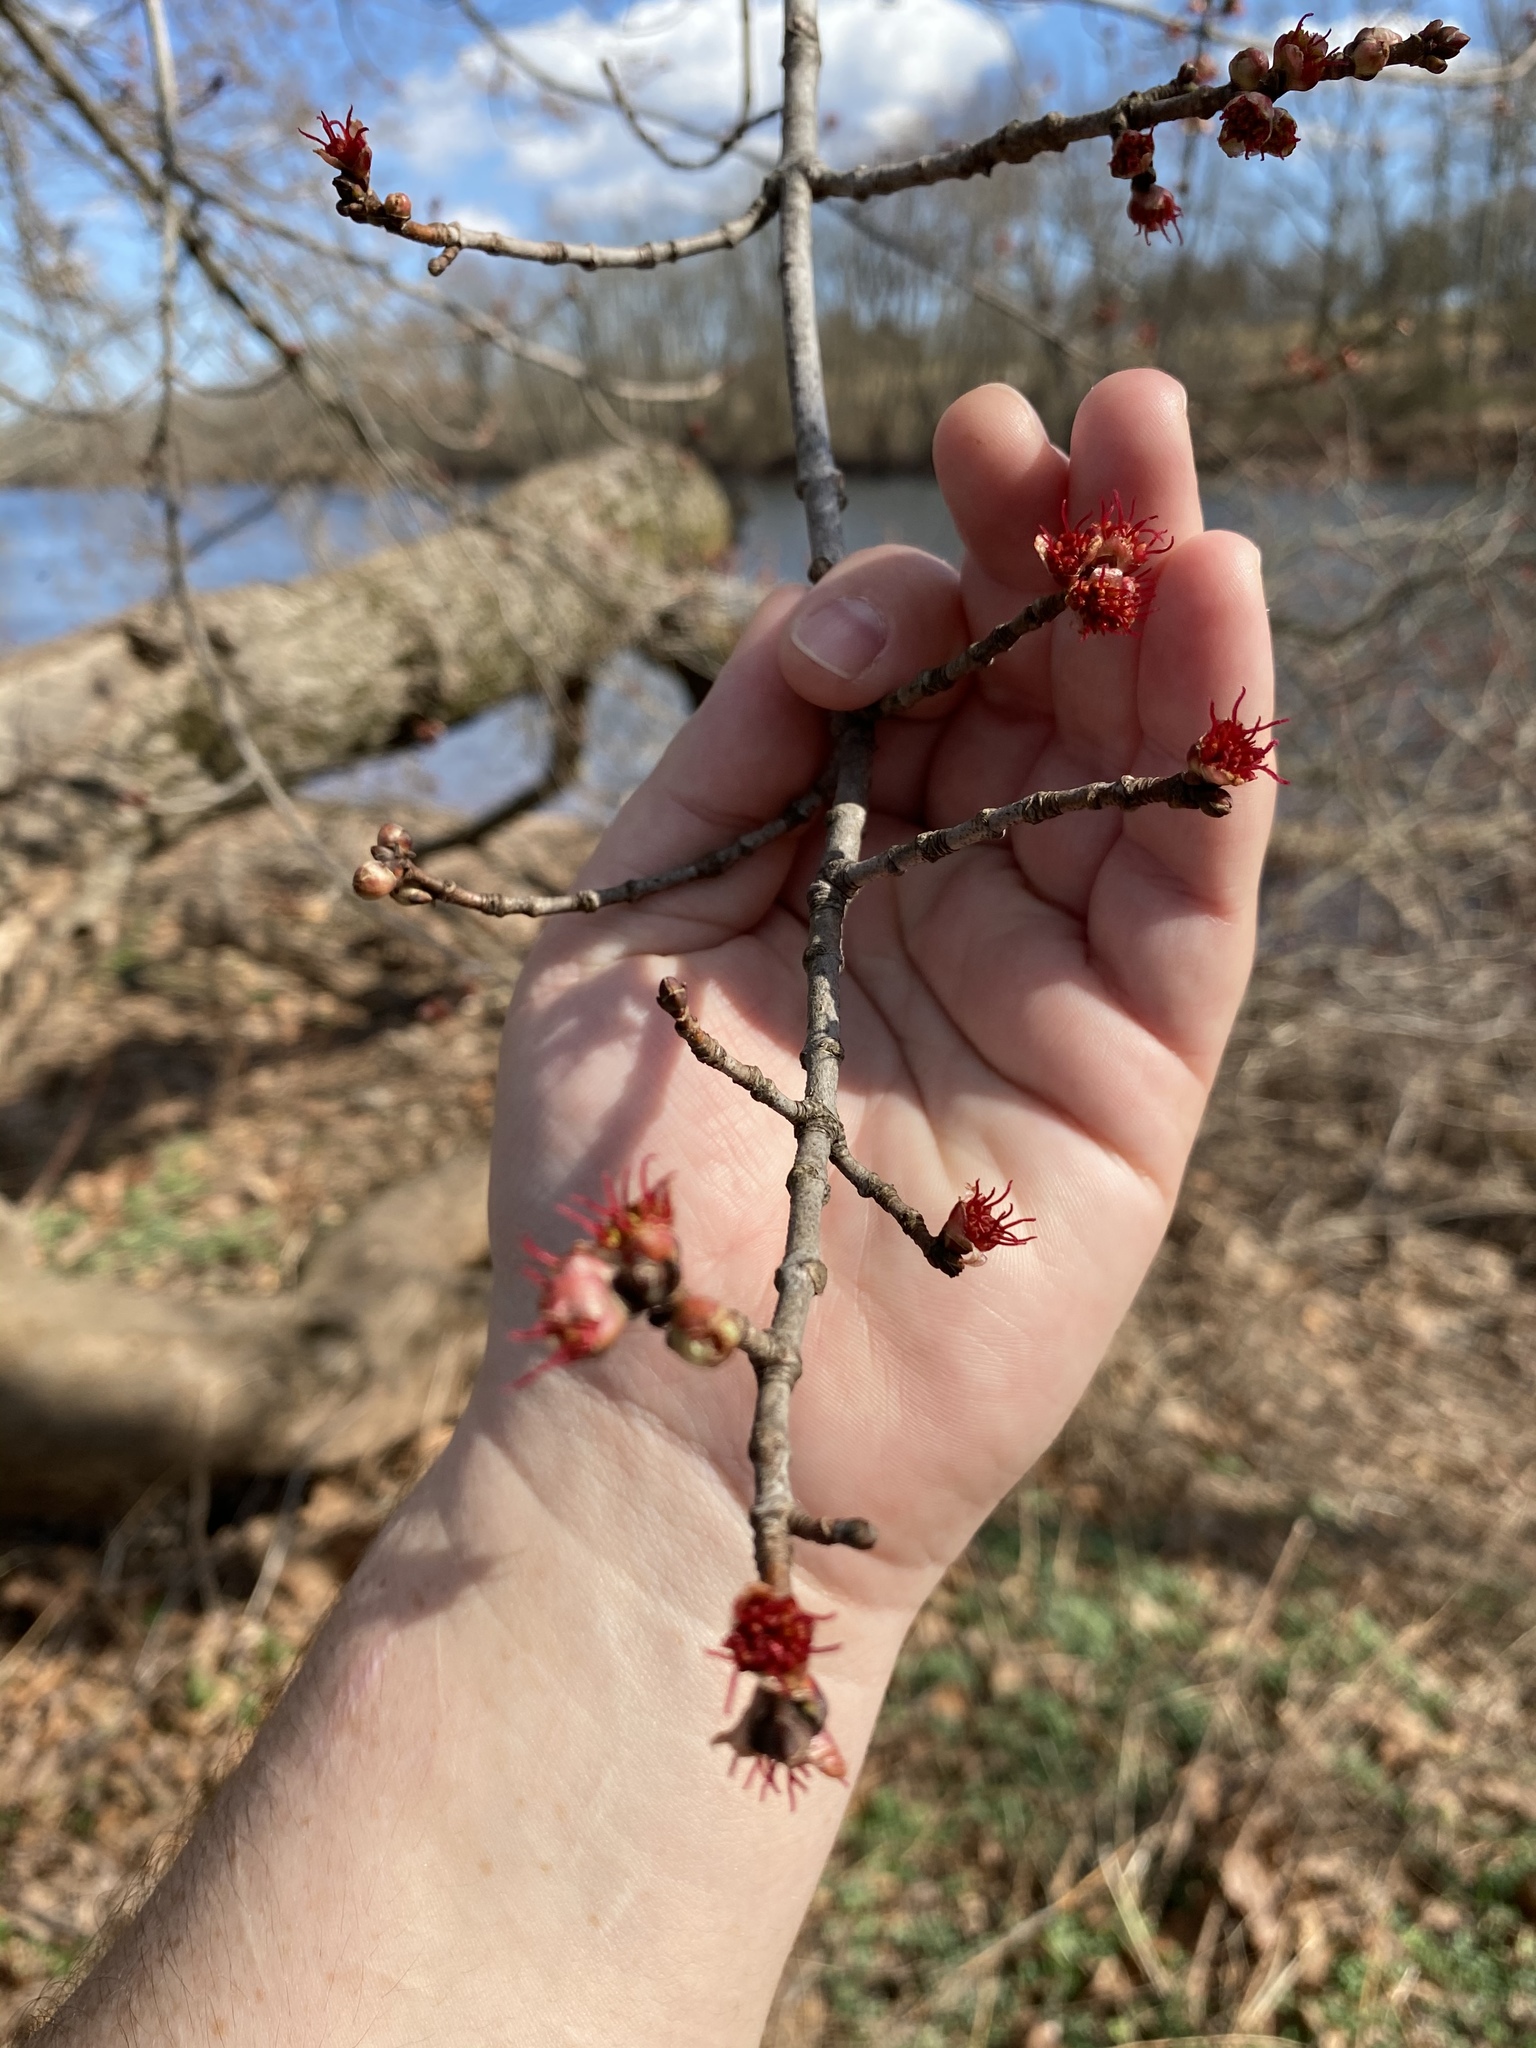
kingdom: Plantae
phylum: Tracheophyta
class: Magnoliopsida
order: Sapindales
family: Sapindaceae
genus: Acer
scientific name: Acer rubrum
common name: Red maple
